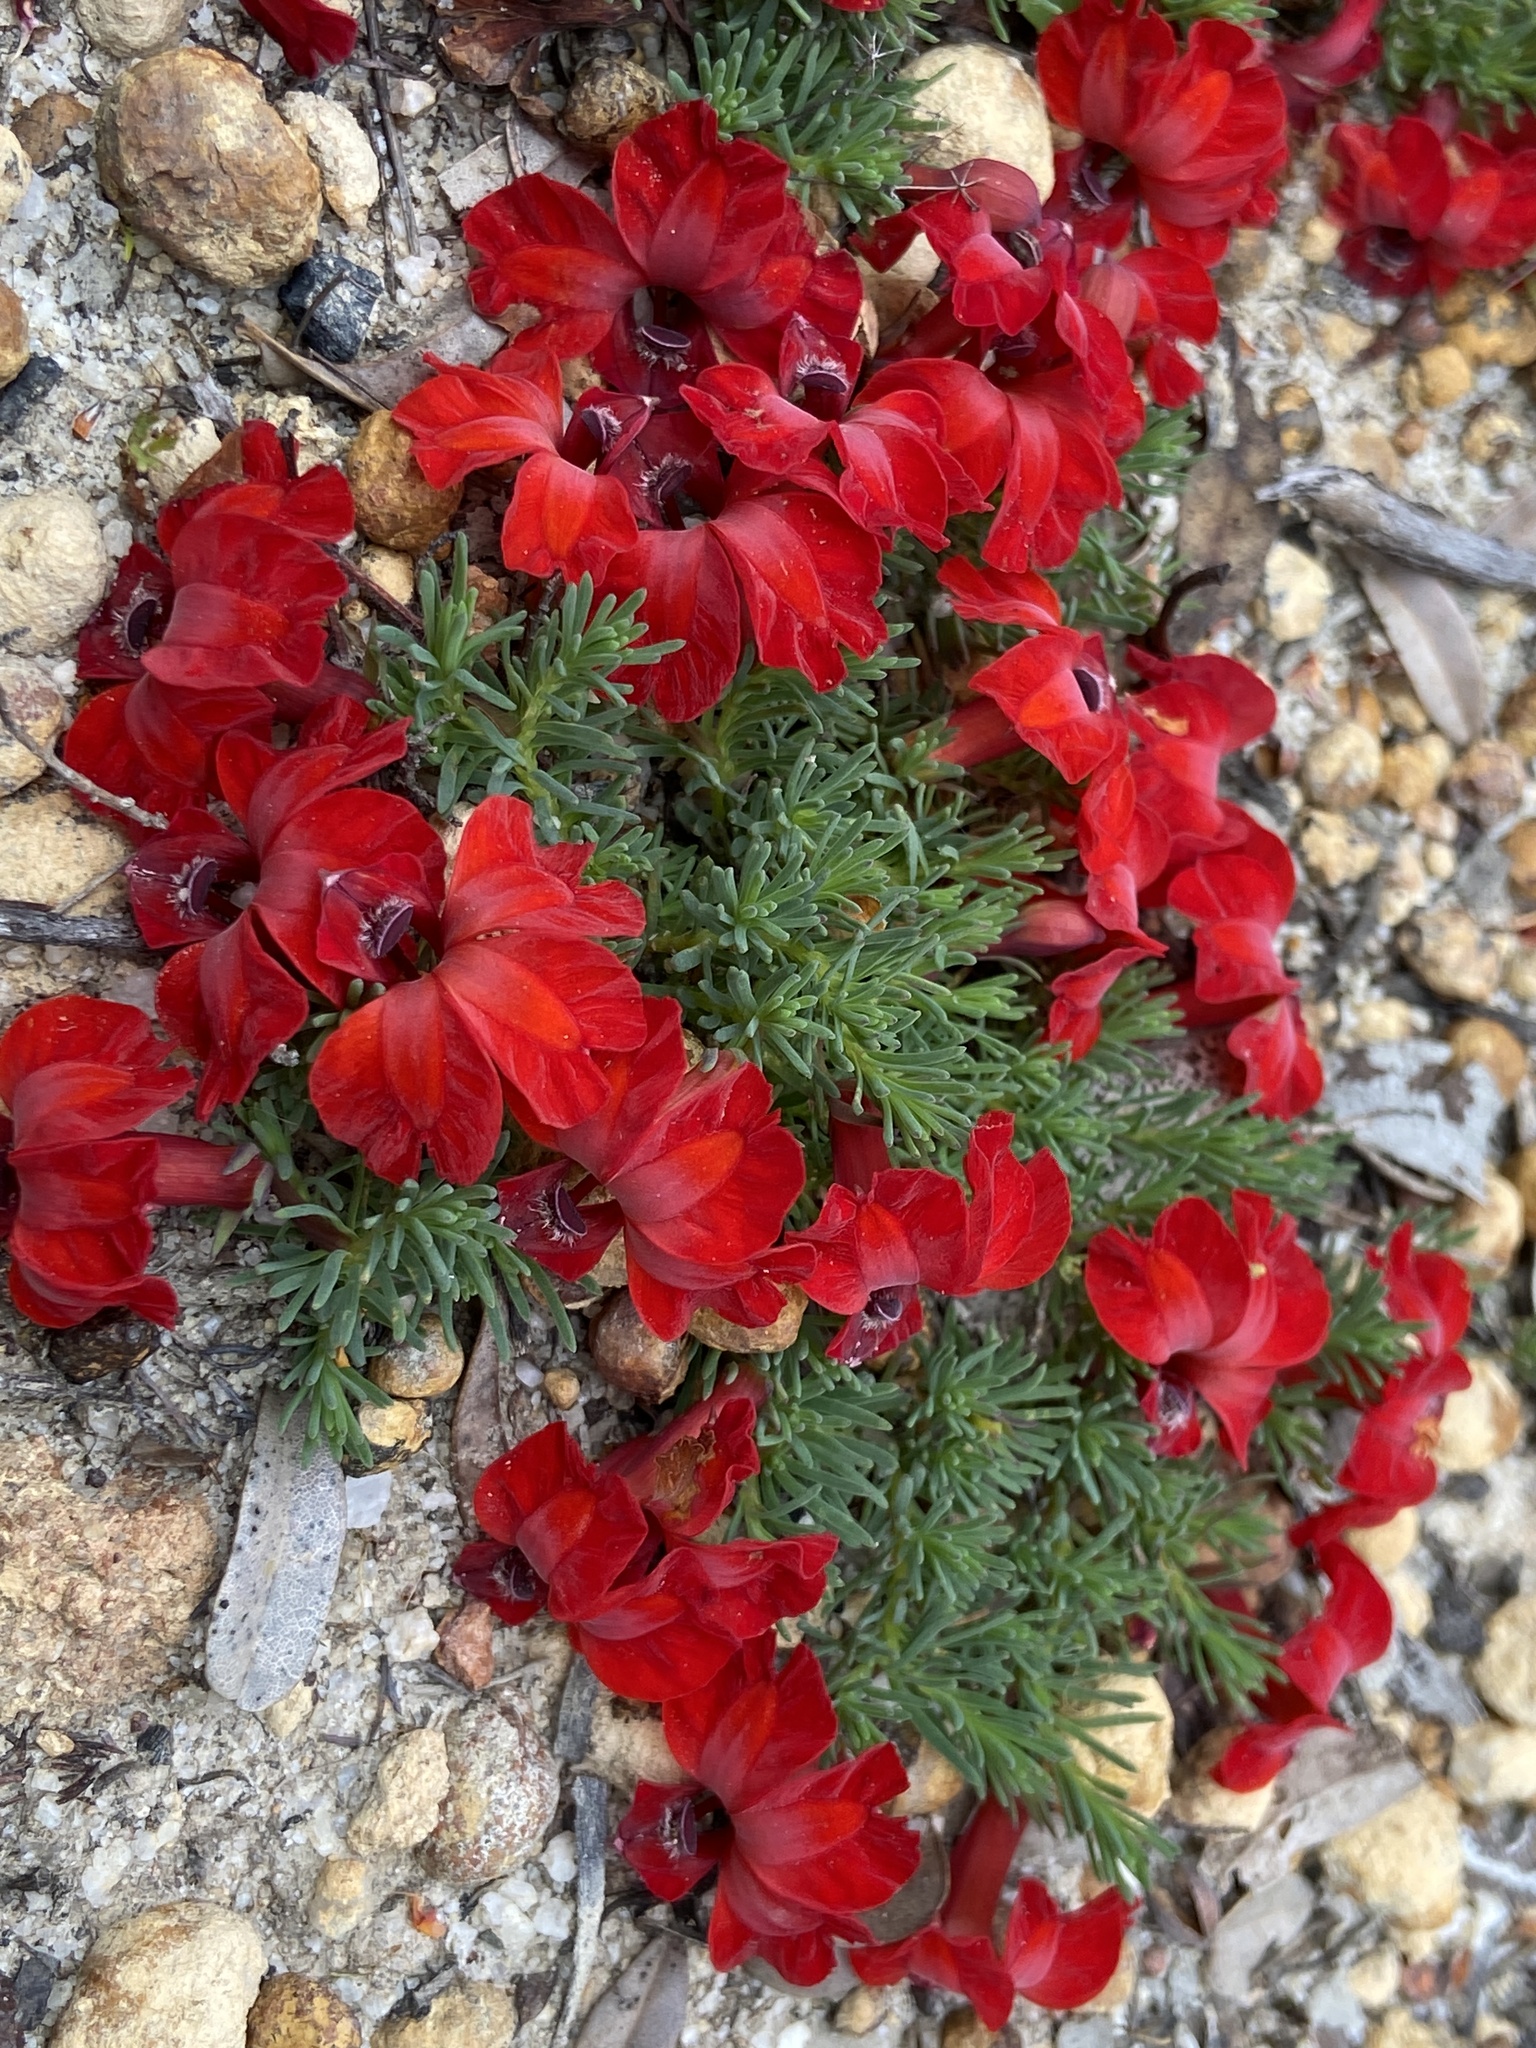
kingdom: Plantae
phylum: Tracheophyta
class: Magnoliopsida
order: Asterales
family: Goodeniaceae
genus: Lechenaultia
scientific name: Lechenaultia formosa
